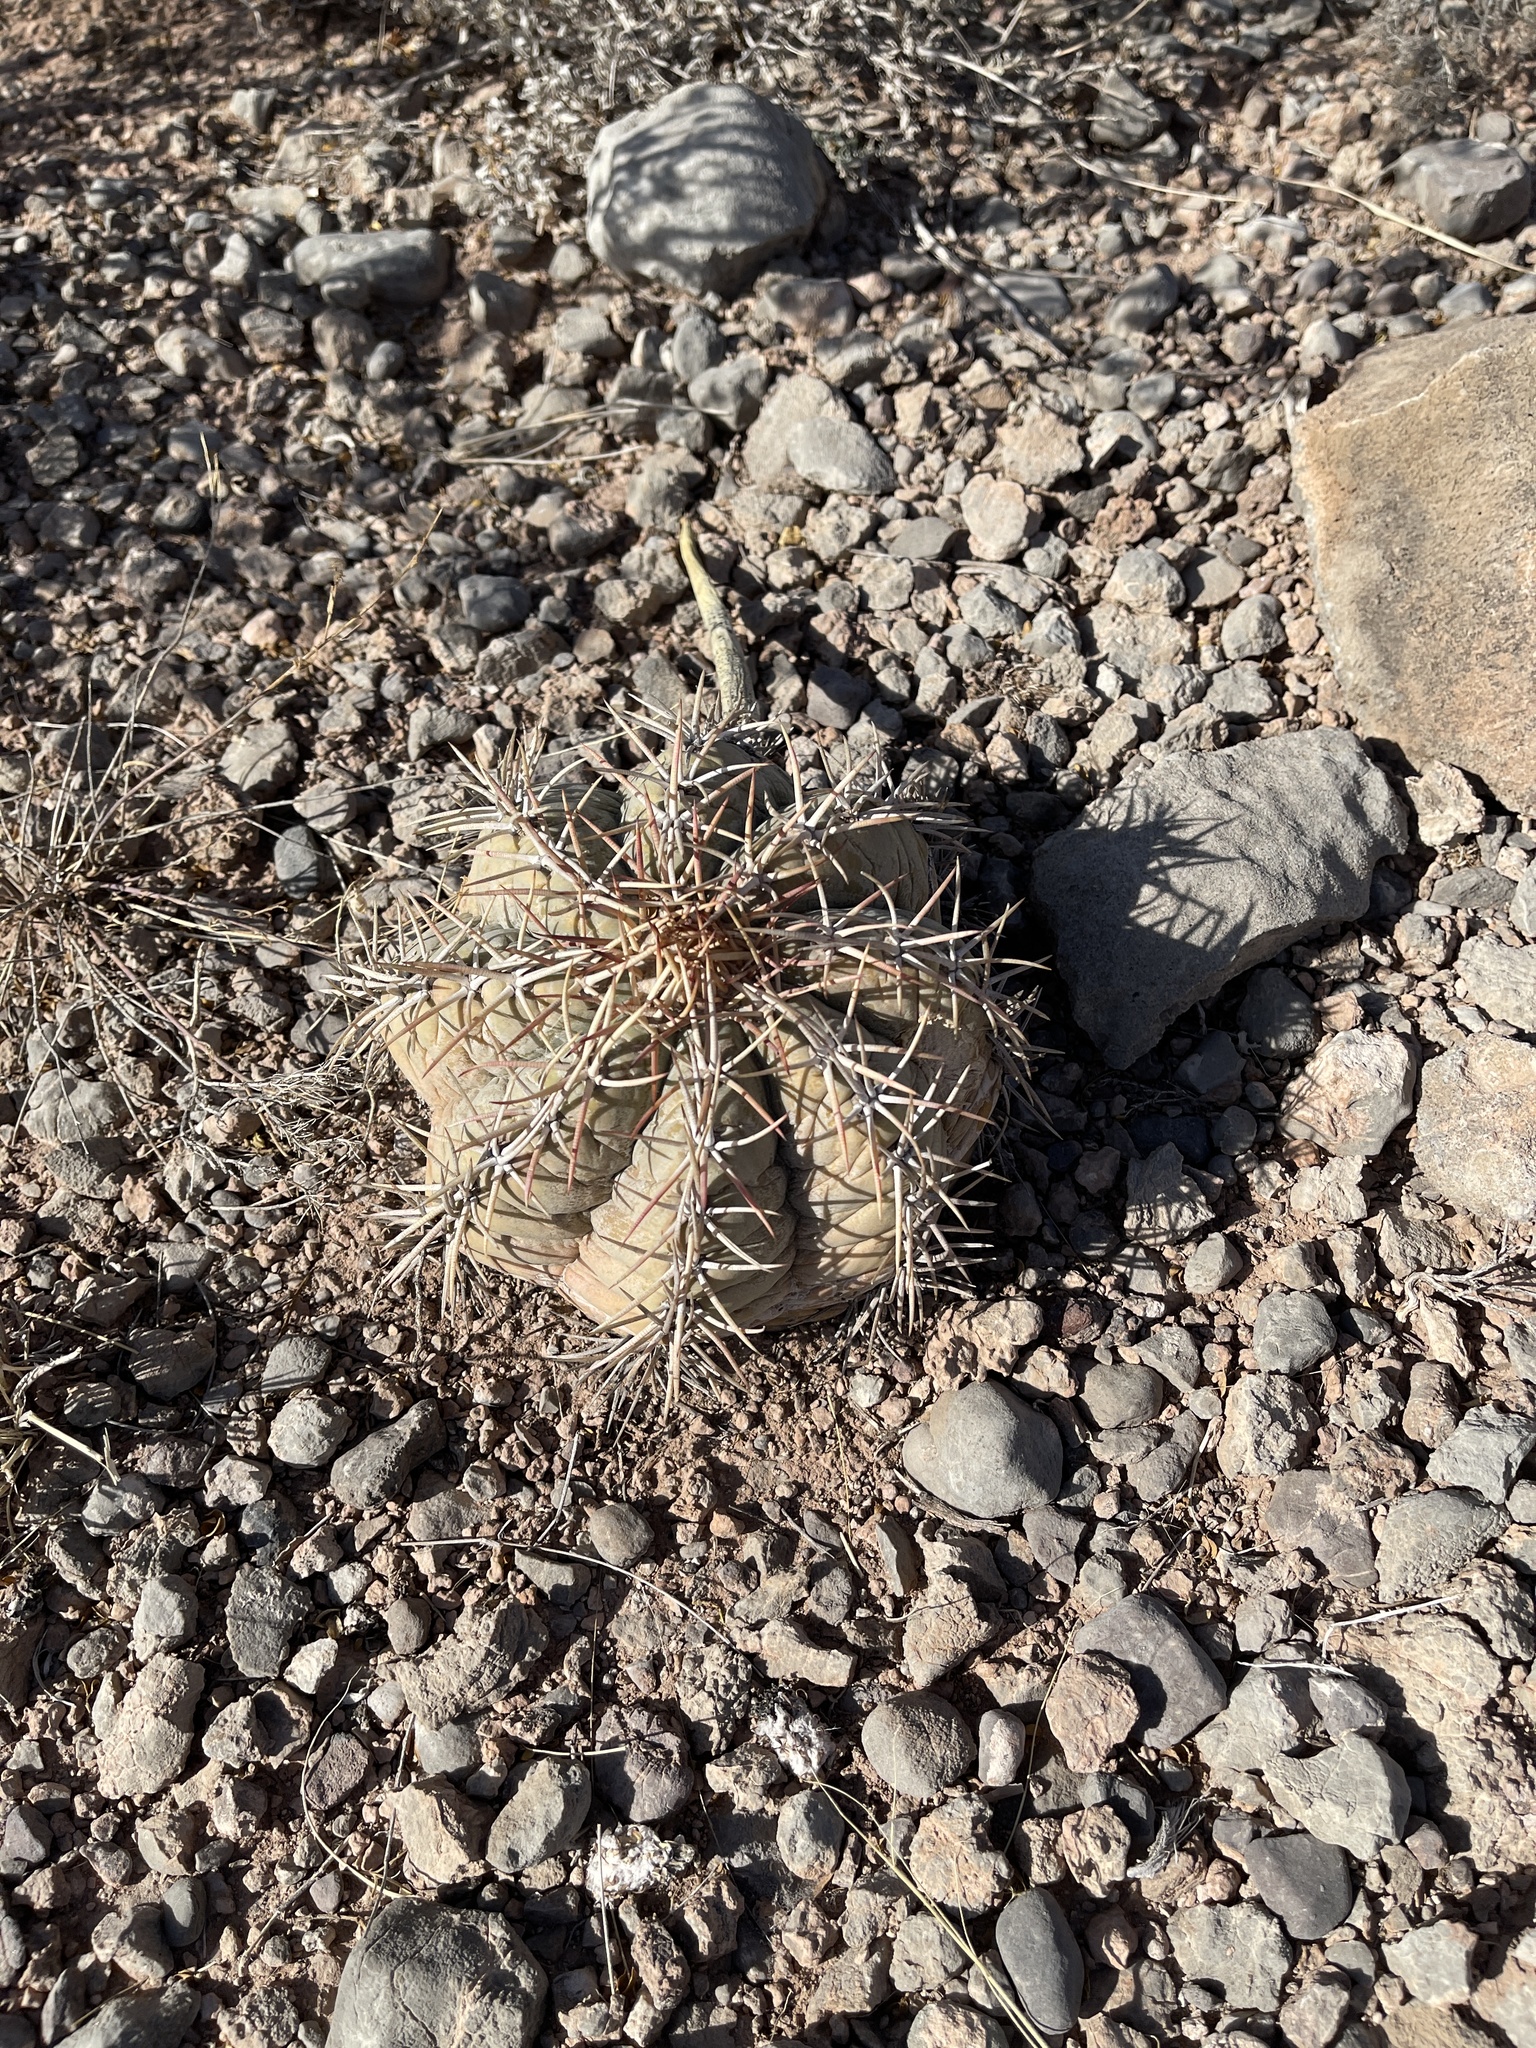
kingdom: Plantae
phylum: Tracheophyta
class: Magnoliopsida
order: Caryophyllales
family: Cactaceae
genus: Echinocactus
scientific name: Echinocactus horizonthalonius
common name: Devilshead
